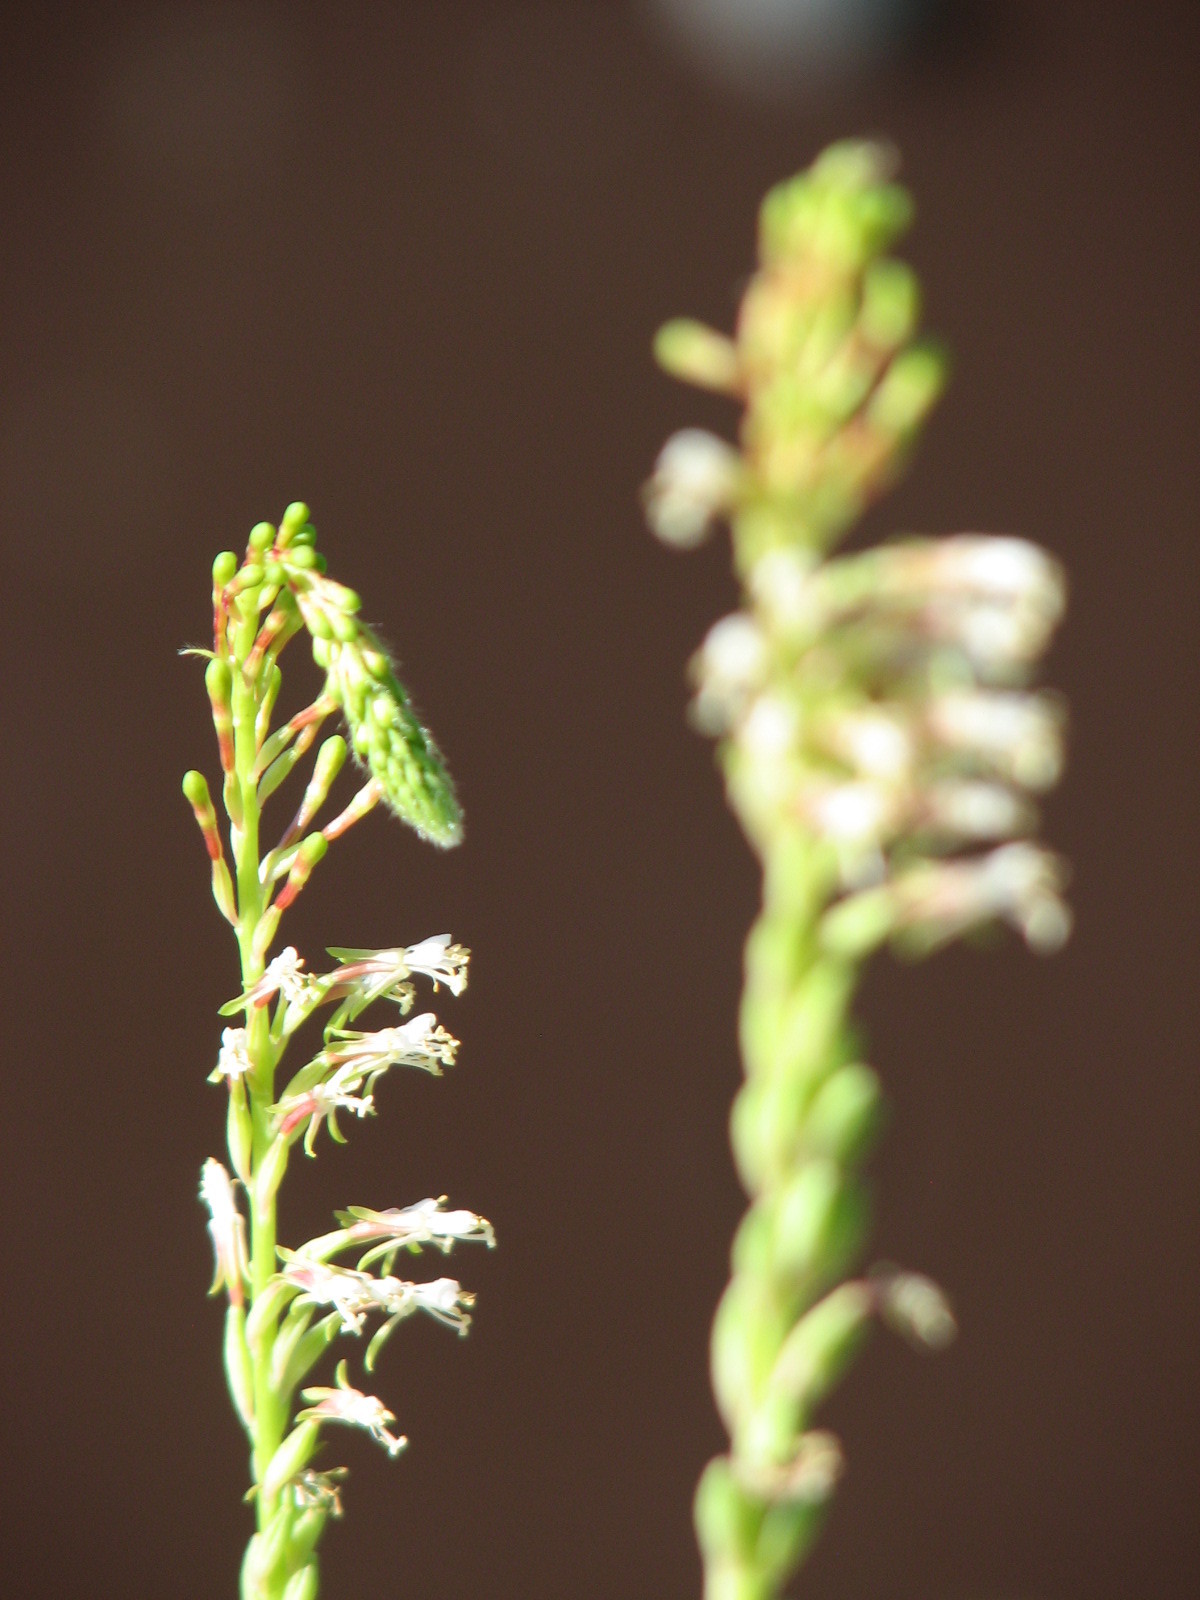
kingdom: Plantae
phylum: Tracheophyta
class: Magnoliopsida
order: Myrtales
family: Onagraceae
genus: Oenothera
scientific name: Oenothera curtiflora
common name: Velvetweed
